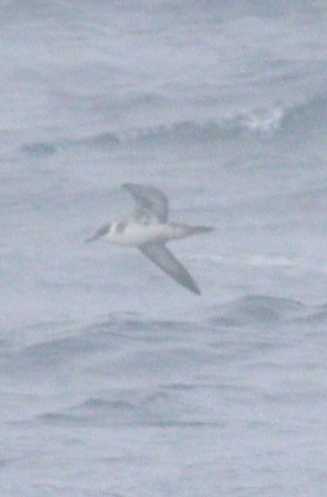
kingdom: Animalia
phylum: Chordata
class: Aves
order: Procellariiformes
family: Procellariidae
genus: Puffinus
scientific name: Puffinus gravis
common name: Great shearwater
